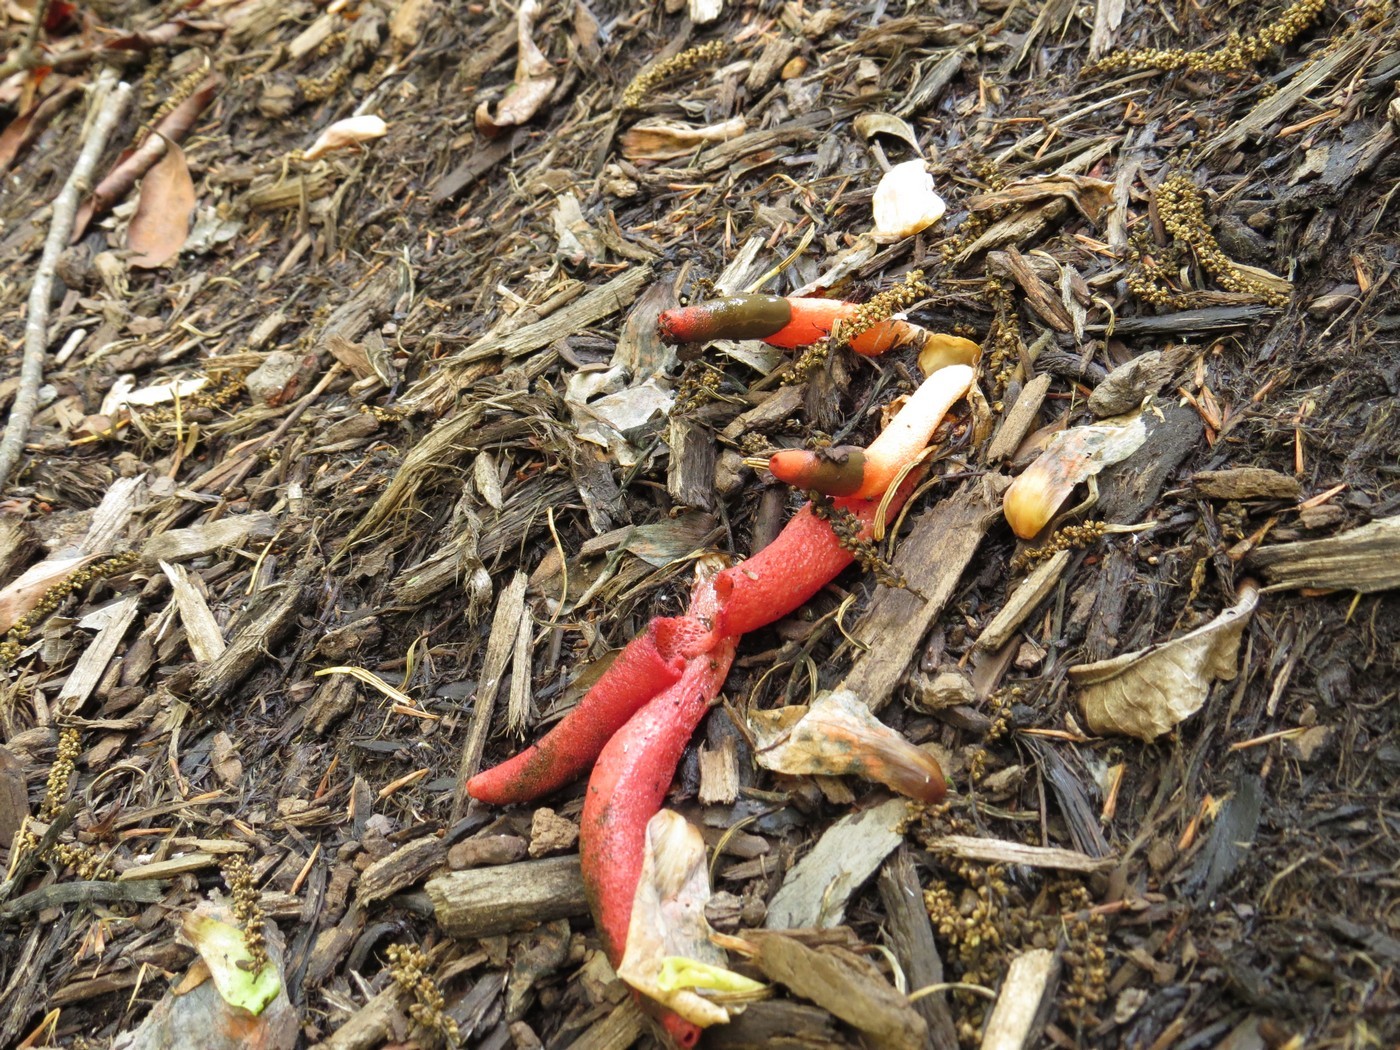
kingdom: Fungi
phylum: Basidiomycota
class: Agaricomycetes
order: Phallales
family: Phallaceae
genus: Mutinus
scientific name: Mutinus elegans
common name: Devil's dipstick
